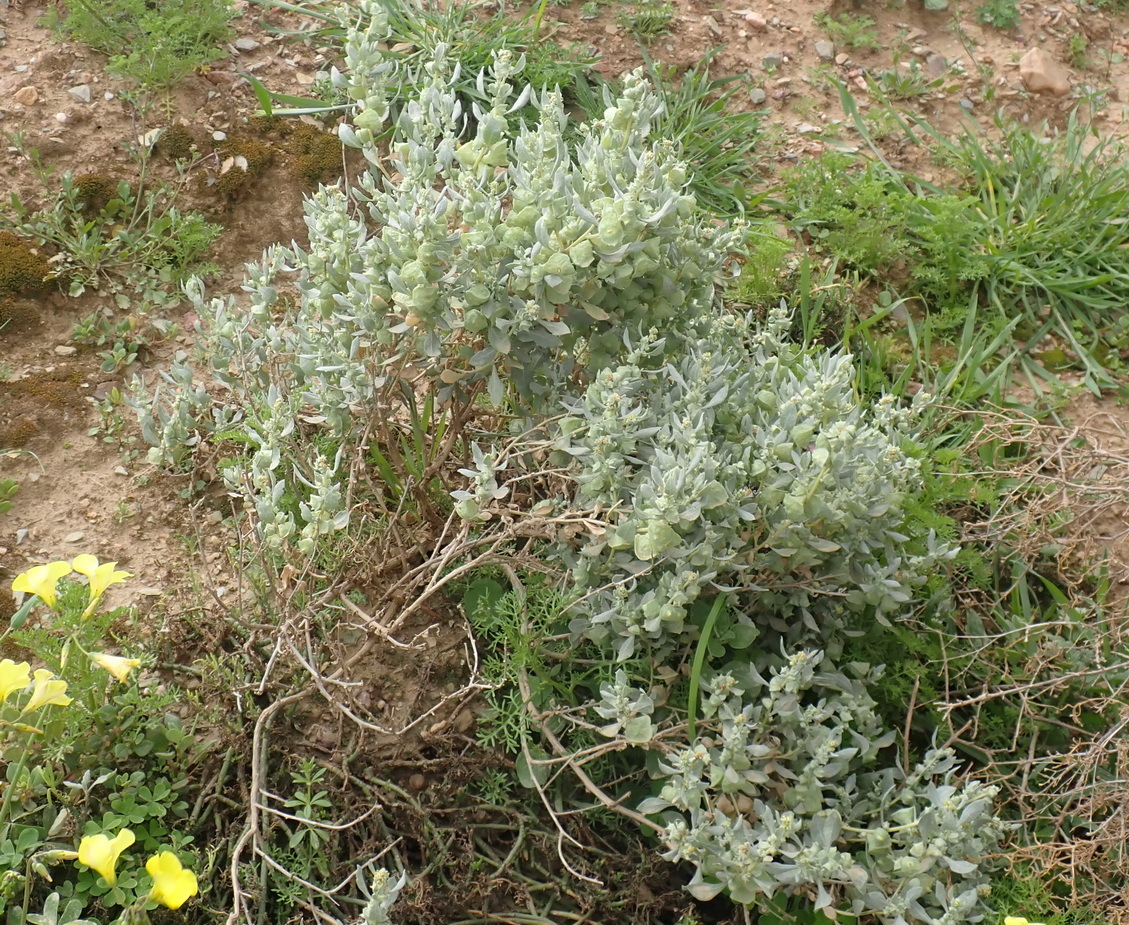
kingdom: Plantae
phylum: Tracheophyta
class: Magnoliopsida
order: Caryophyllales
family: Amaranthaceae
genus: Atriplex
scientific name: Atriplex lindleyi
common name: Lindley's saltbush
